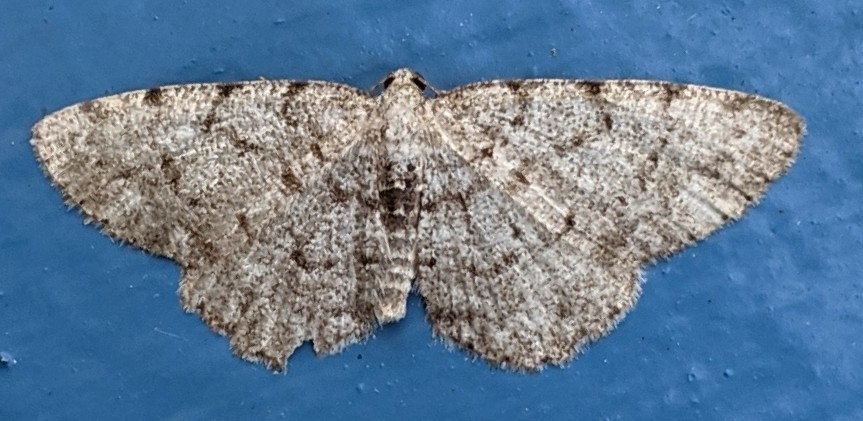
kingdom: Animalia
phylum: Arthropoda
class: Insecta
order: Lepidoptera
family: Geometridae
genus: Aethalura
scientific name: Aethalura intertexta
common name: Four-barred gray
